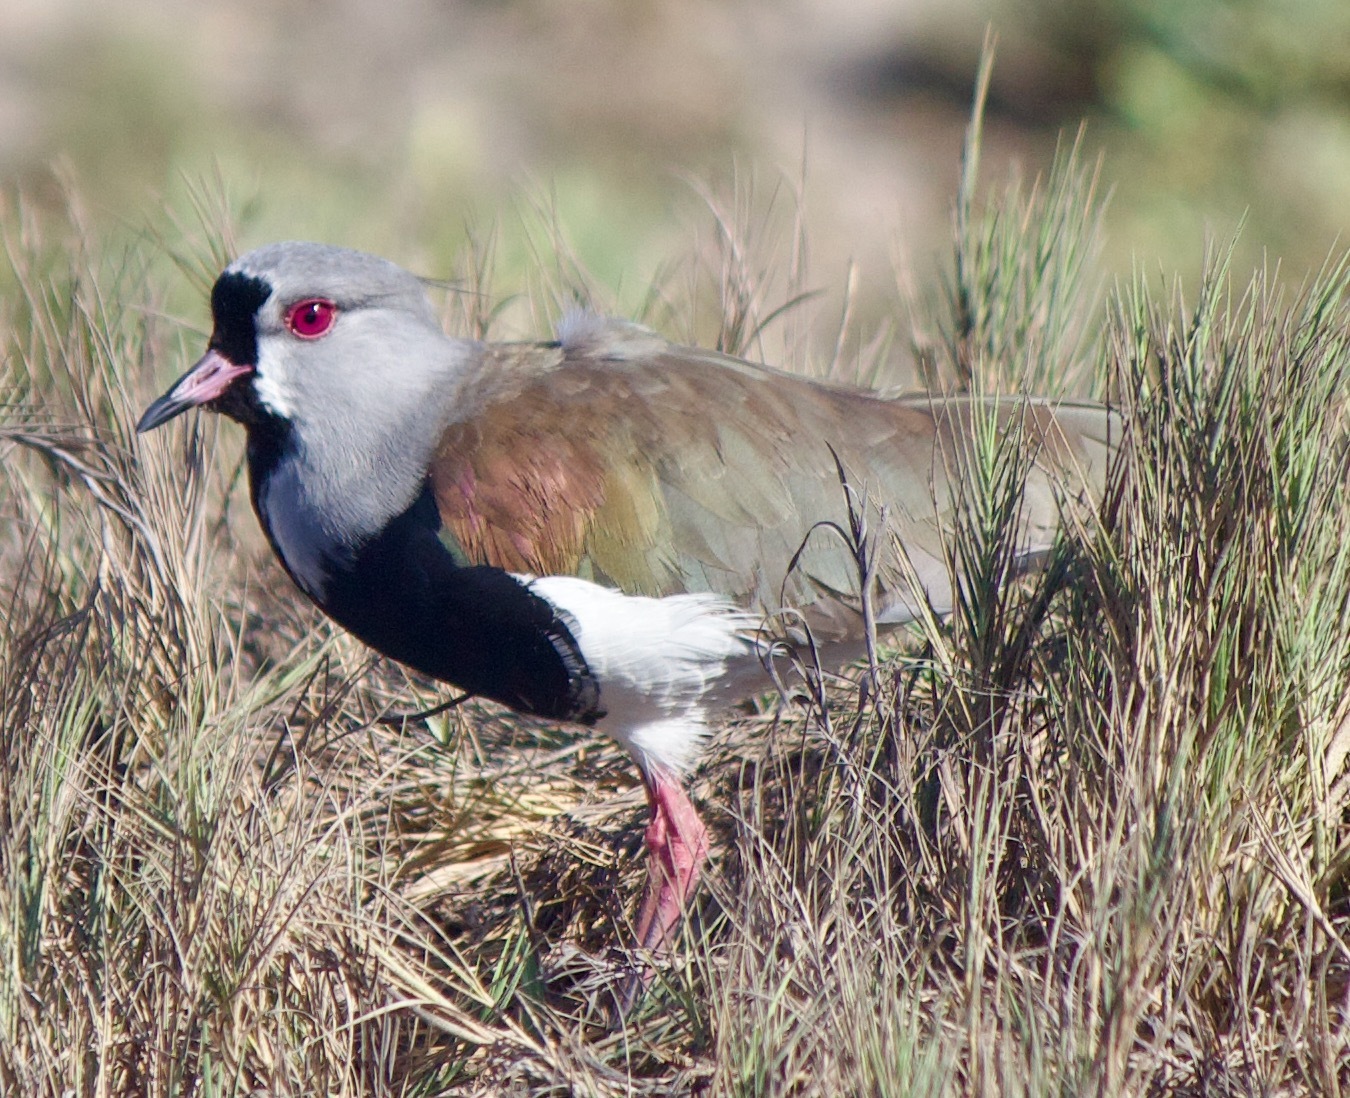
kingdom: Animalia
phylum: Chordata
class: Aves
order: Charadriiformes
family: Charadriidae
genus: Vanellus
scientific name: Vanellus chilensis
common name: Southern lapwing
